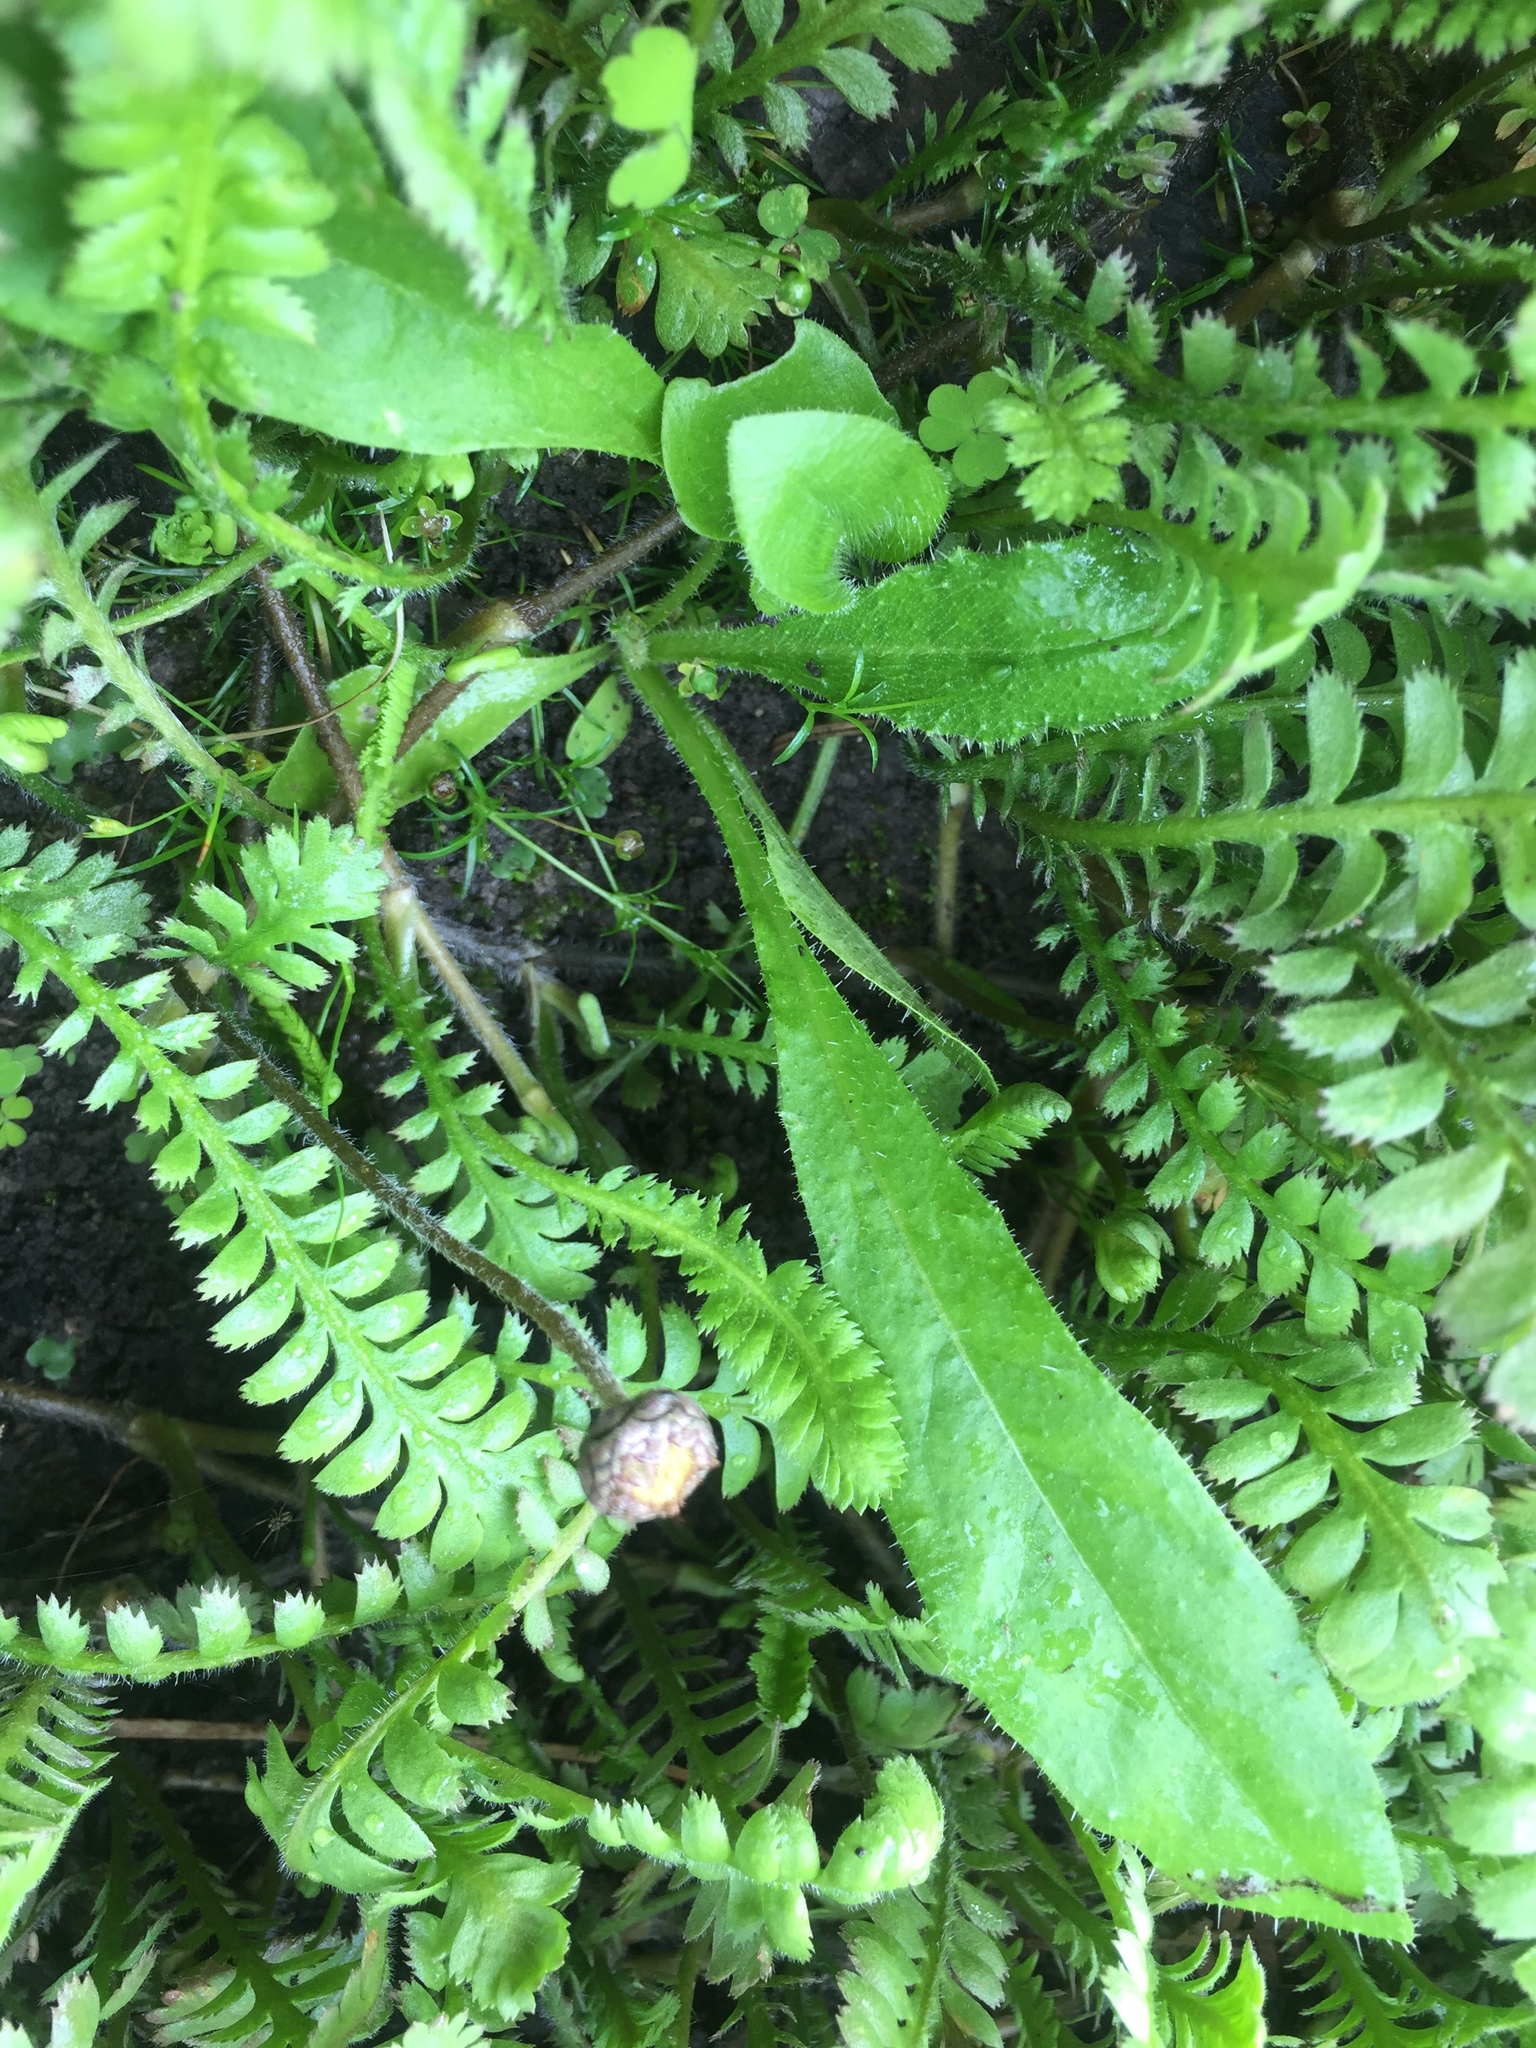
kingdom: Plantae
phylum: Tracheophyta
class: Magnoliopsida
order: Asterales
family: Asteraceae
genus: Helminthotheca
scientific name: Helminthotheca echioides
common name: Ox-tongue
